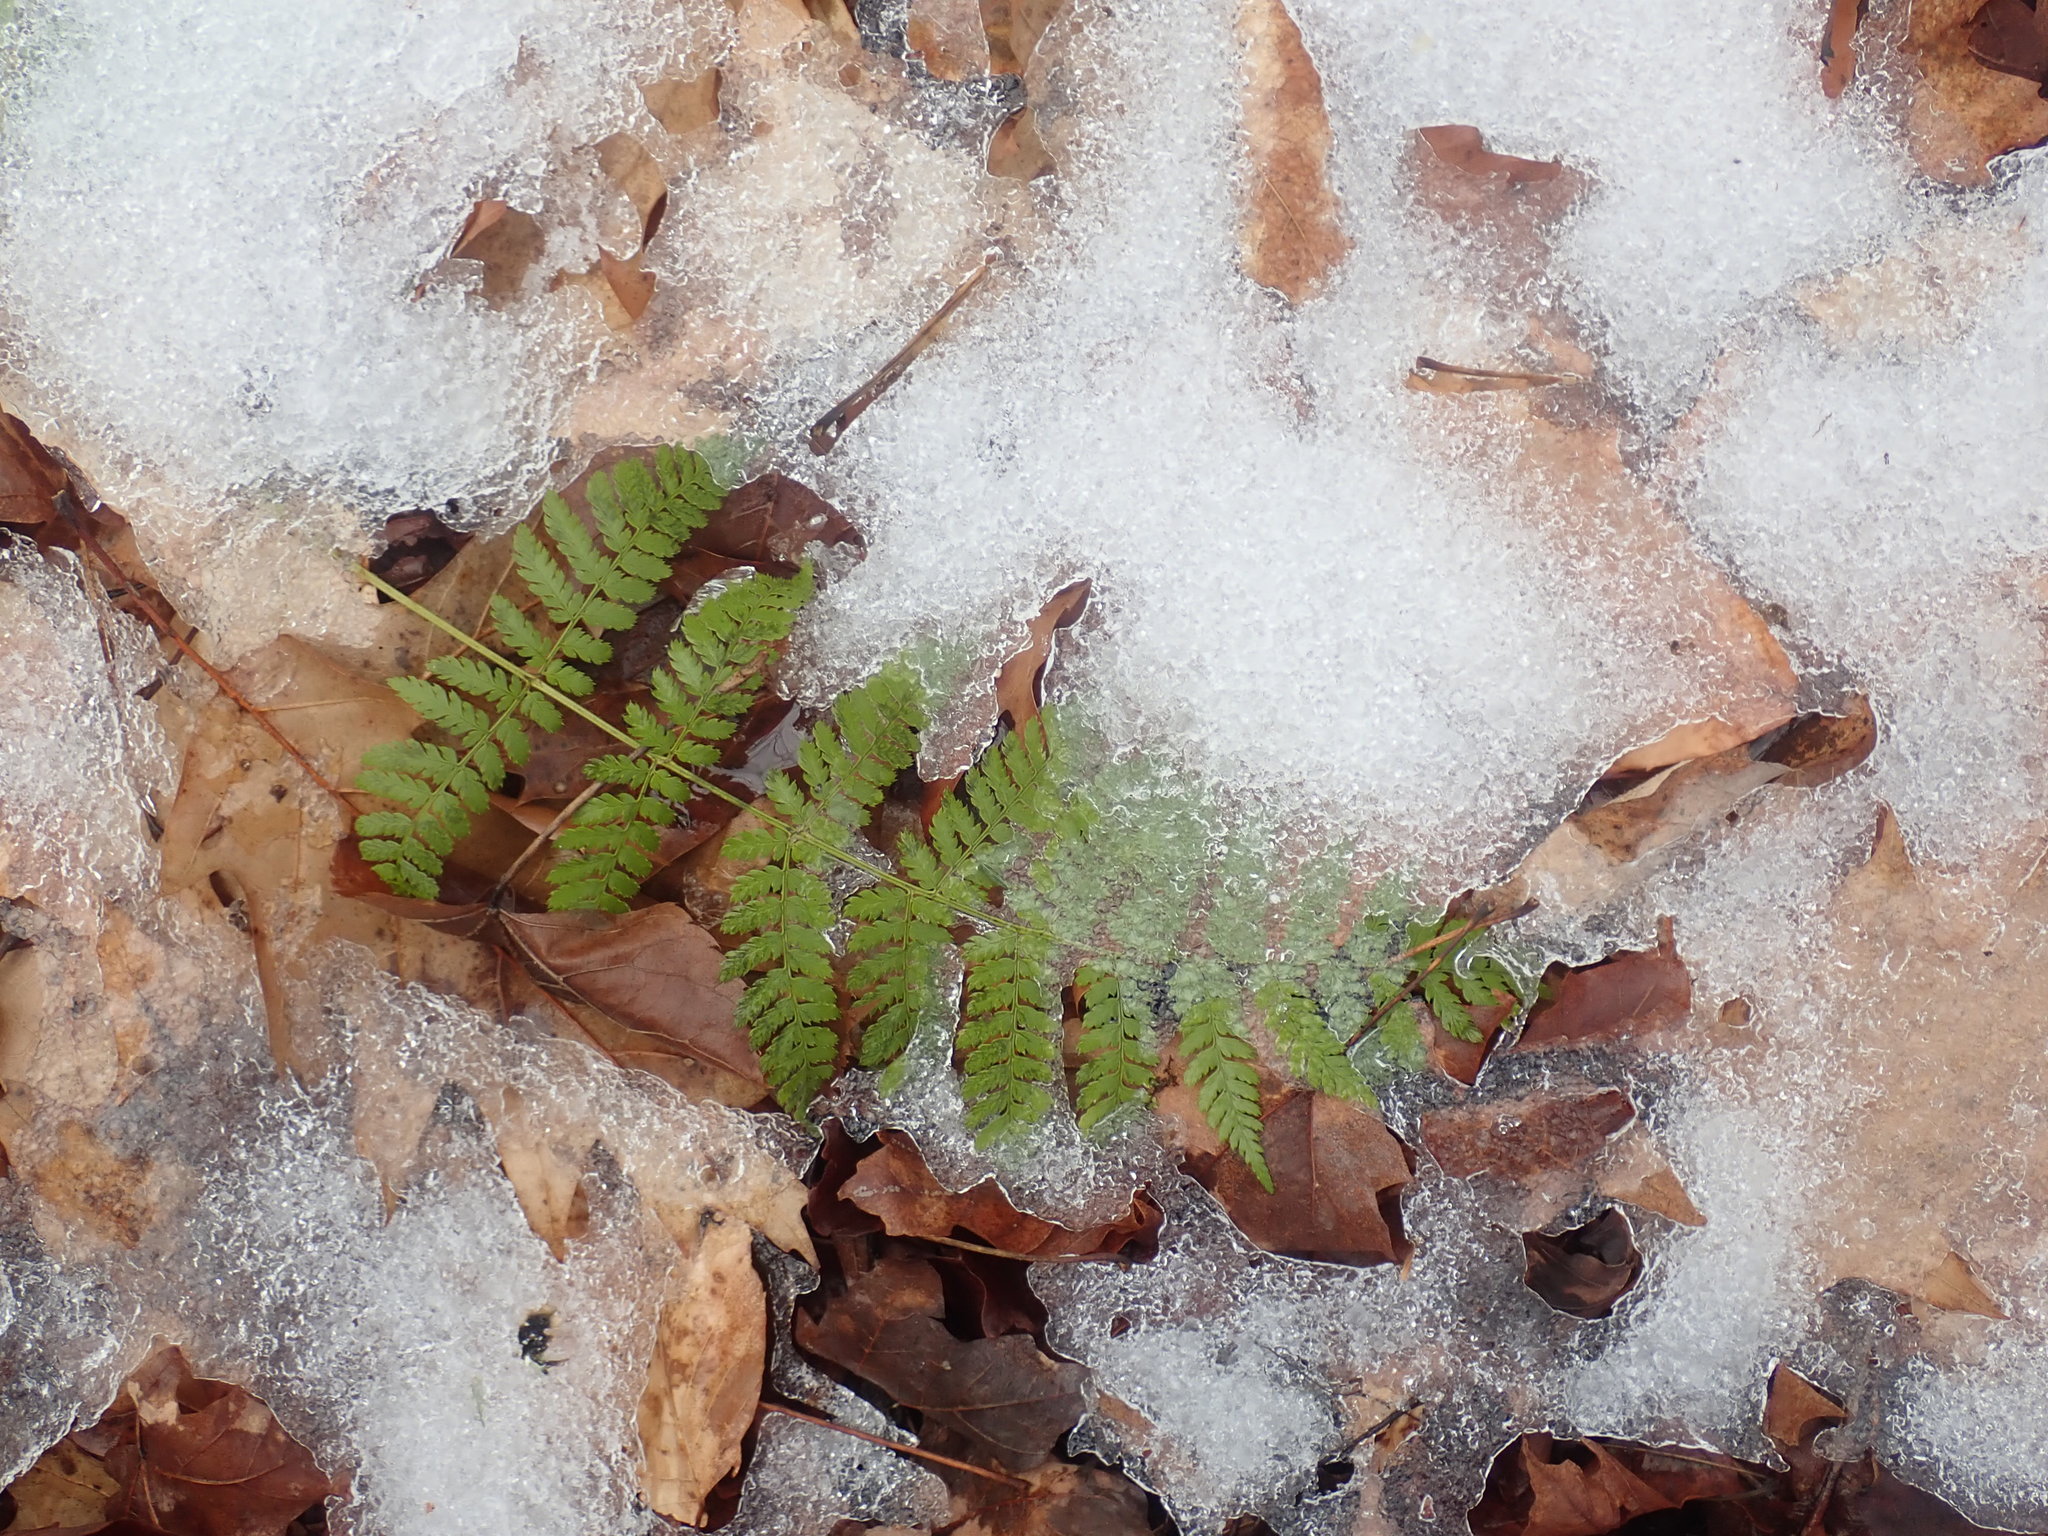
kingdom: Plantae
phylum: Tracheophyta
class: Polypodiopsida
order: Polypodiales
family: Dryopteridaceae
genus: Dryopteris
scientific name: Dryopteris intermedia
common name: Evergreen wood fern
